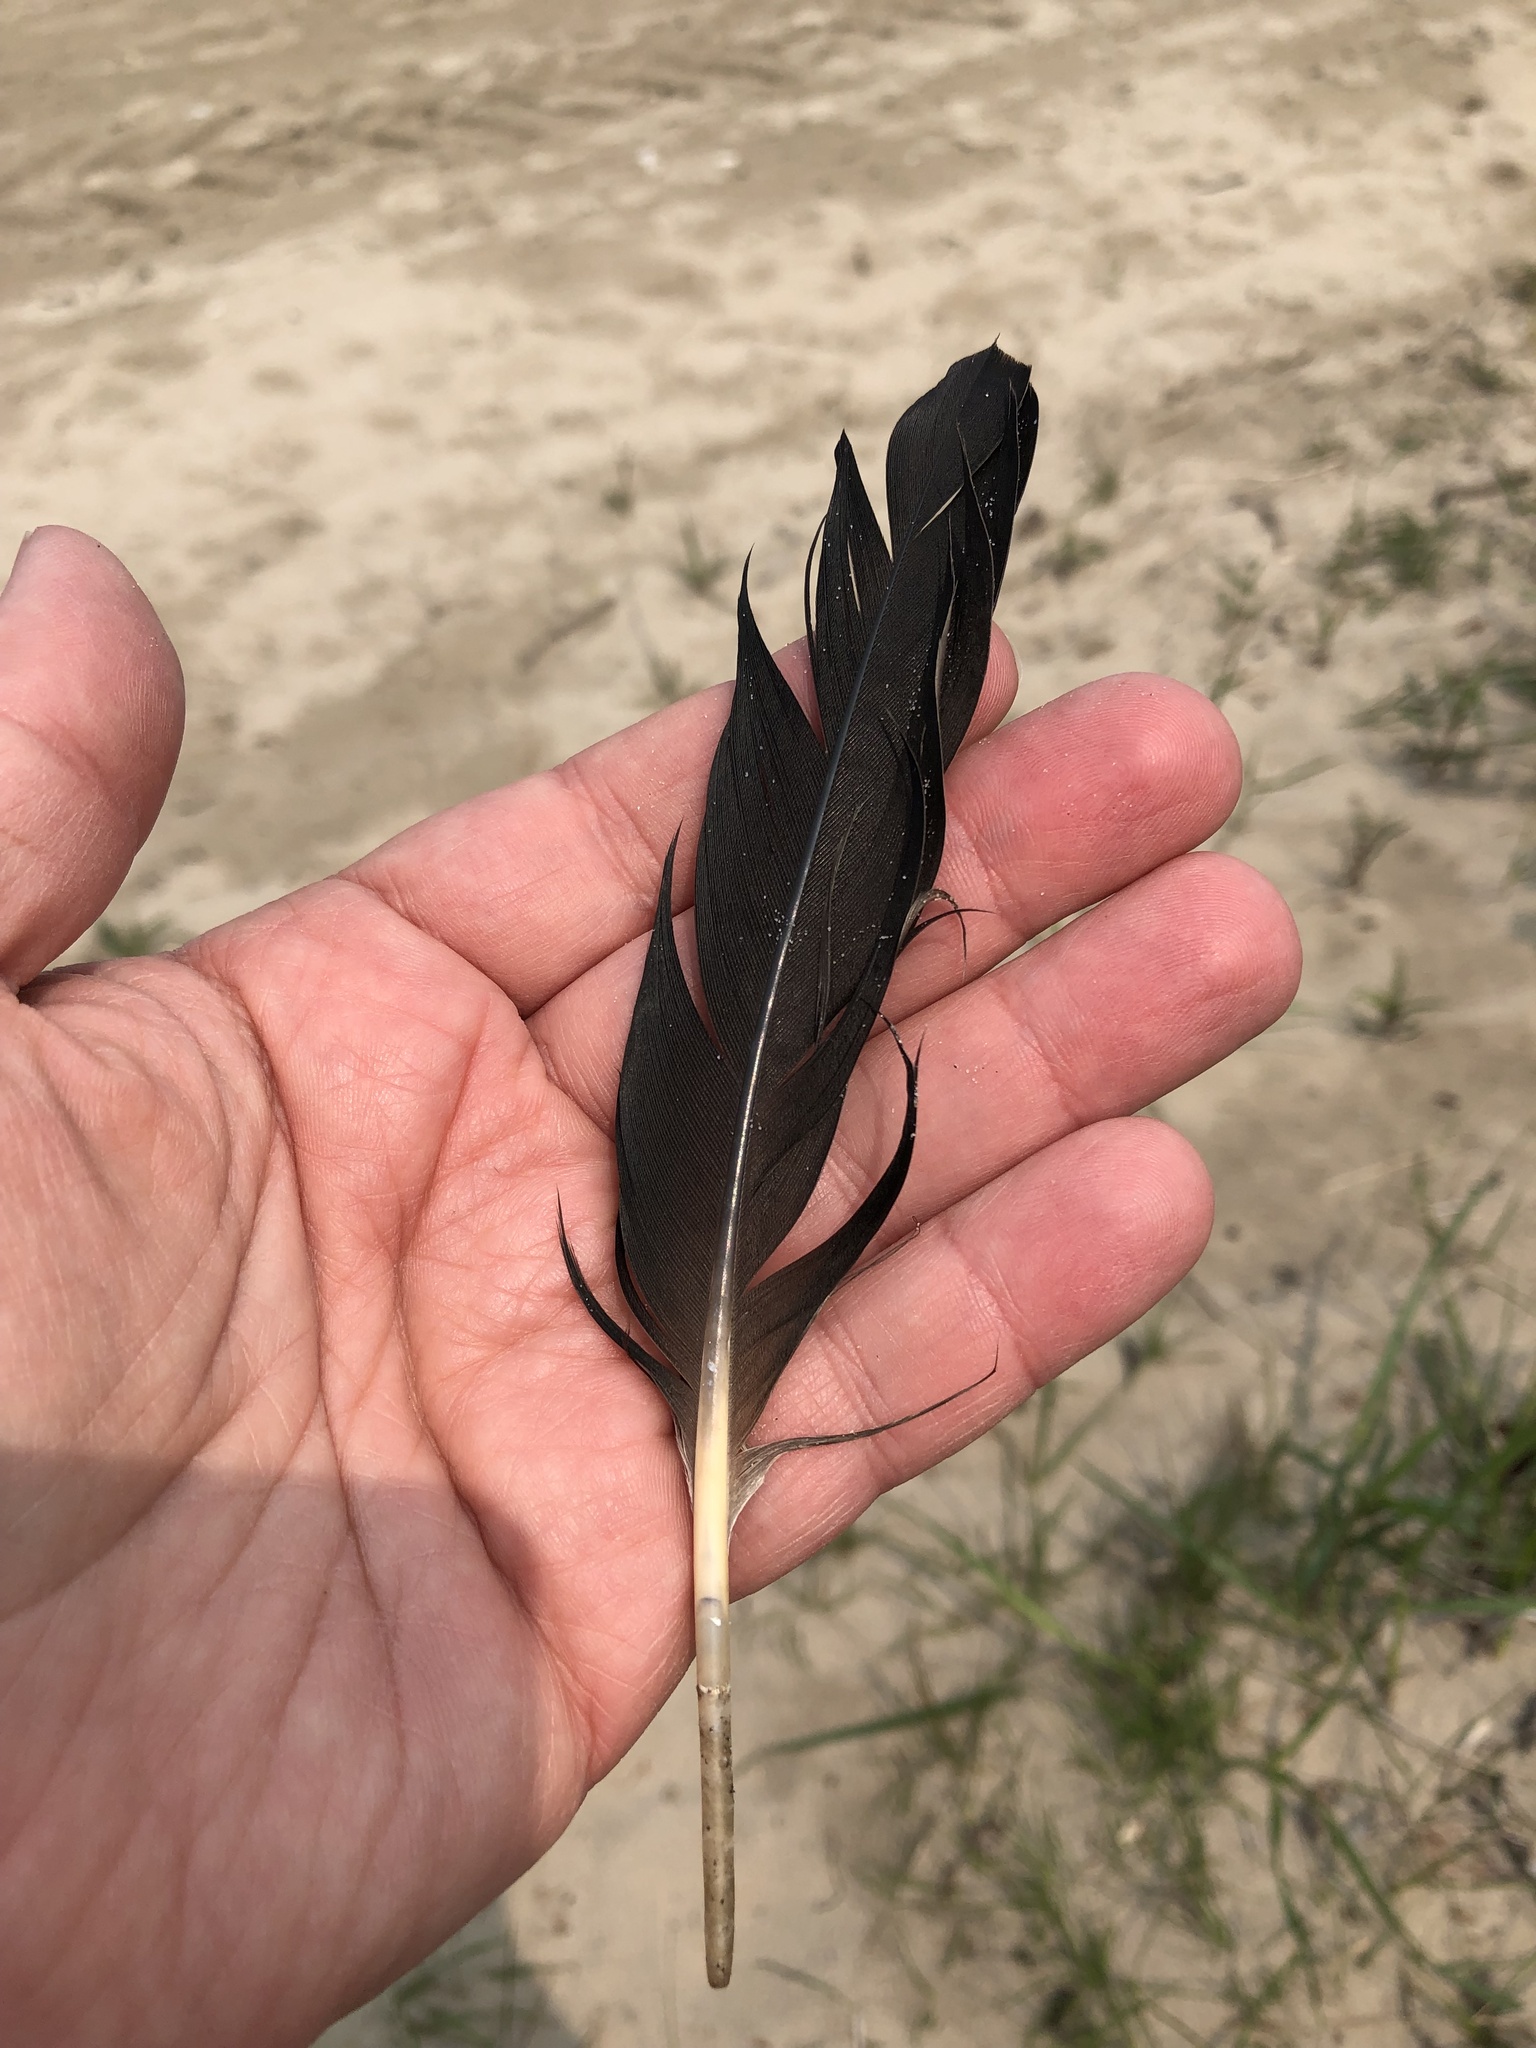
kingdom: Animalia
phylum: Chordata
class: Aves
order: Anseriformes
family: Anatidae
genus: Branta
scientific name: Branta canadensis
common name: Canada goose
